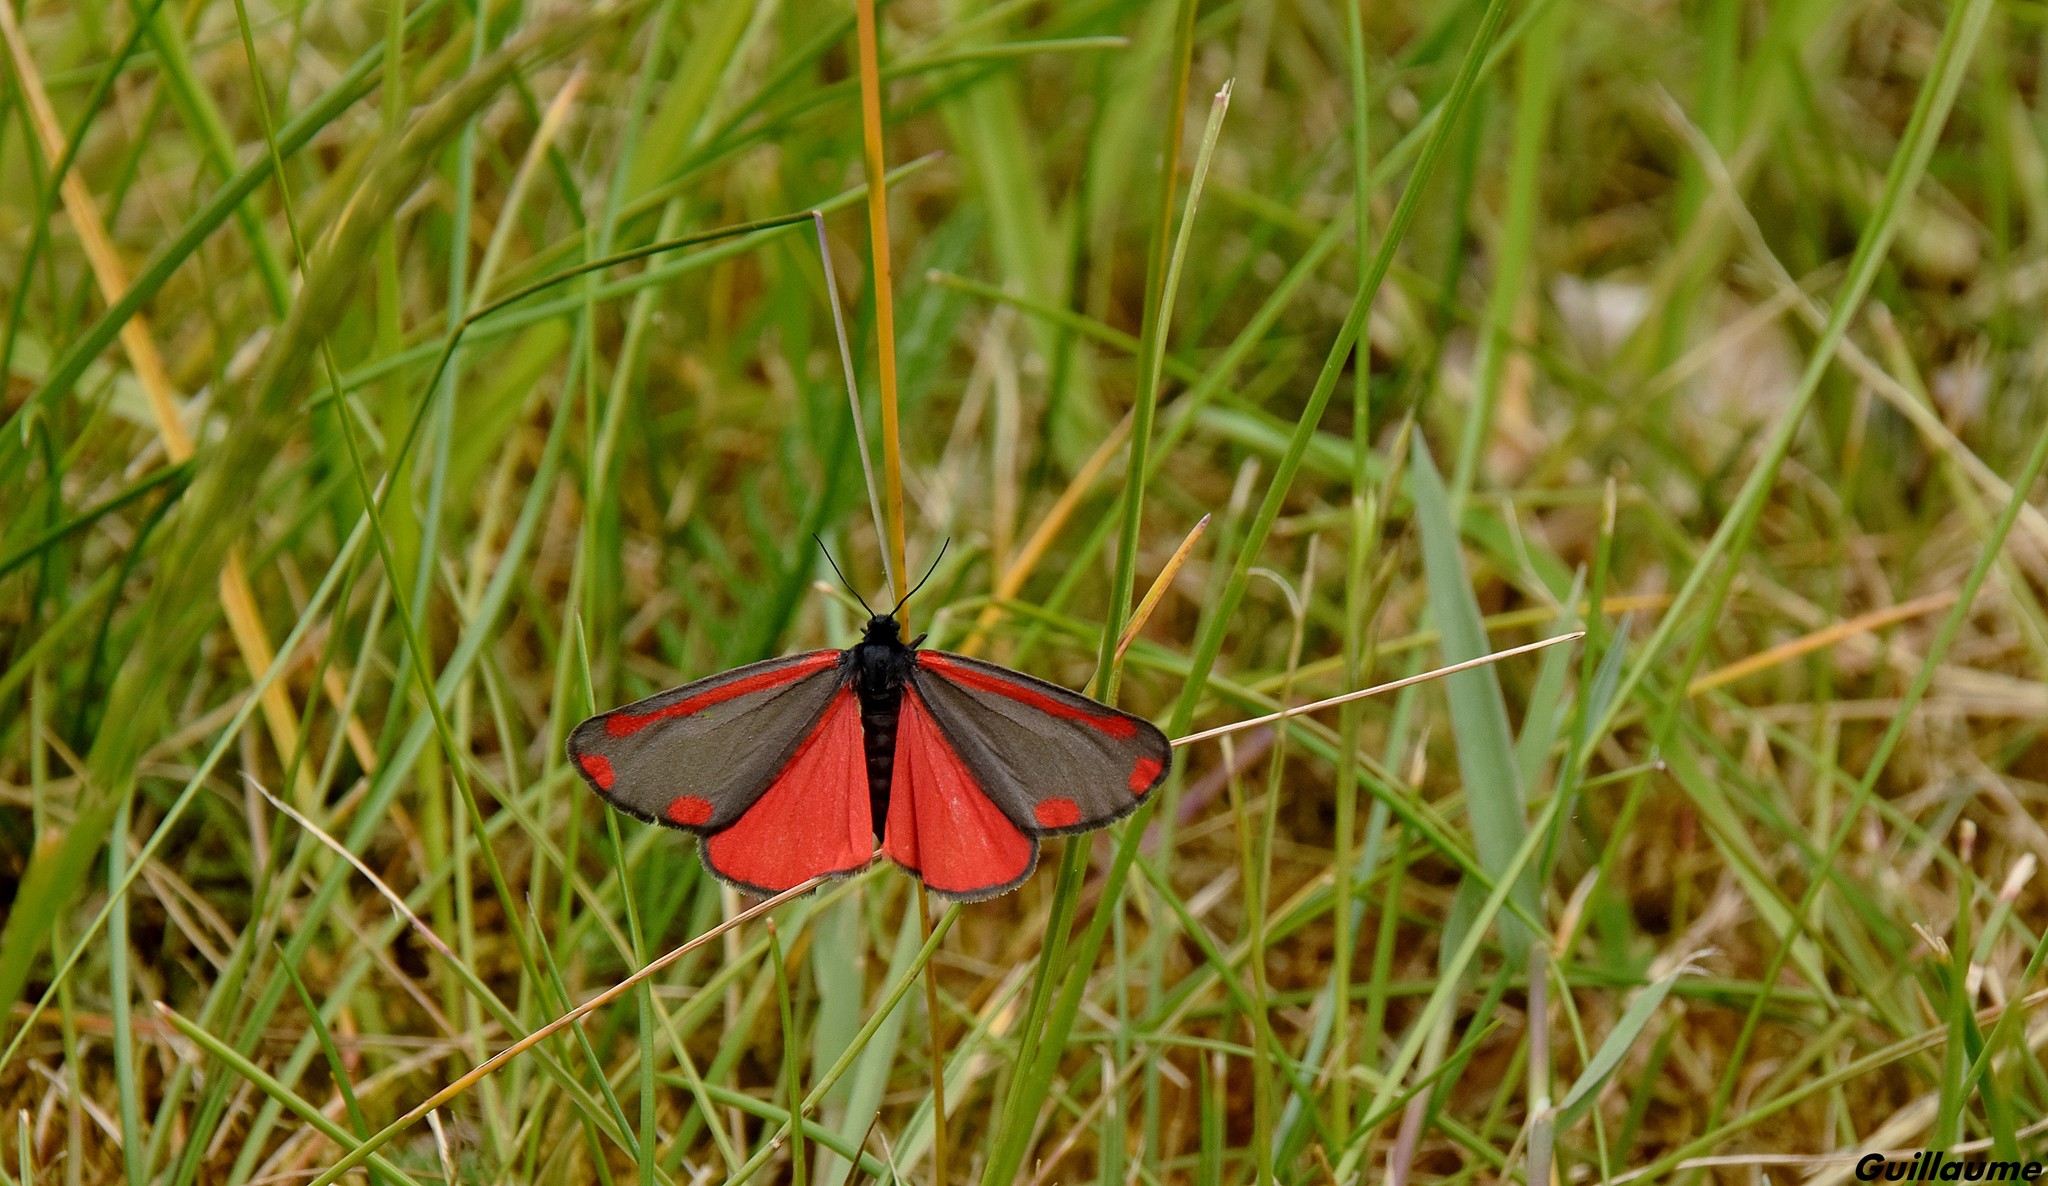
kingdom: Animalia
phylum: Arthropoda
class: Insecta
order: Lepidoptera
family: Erebidae
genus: Tyria
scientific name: Tyria jacobaeae
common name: Cinnabar
